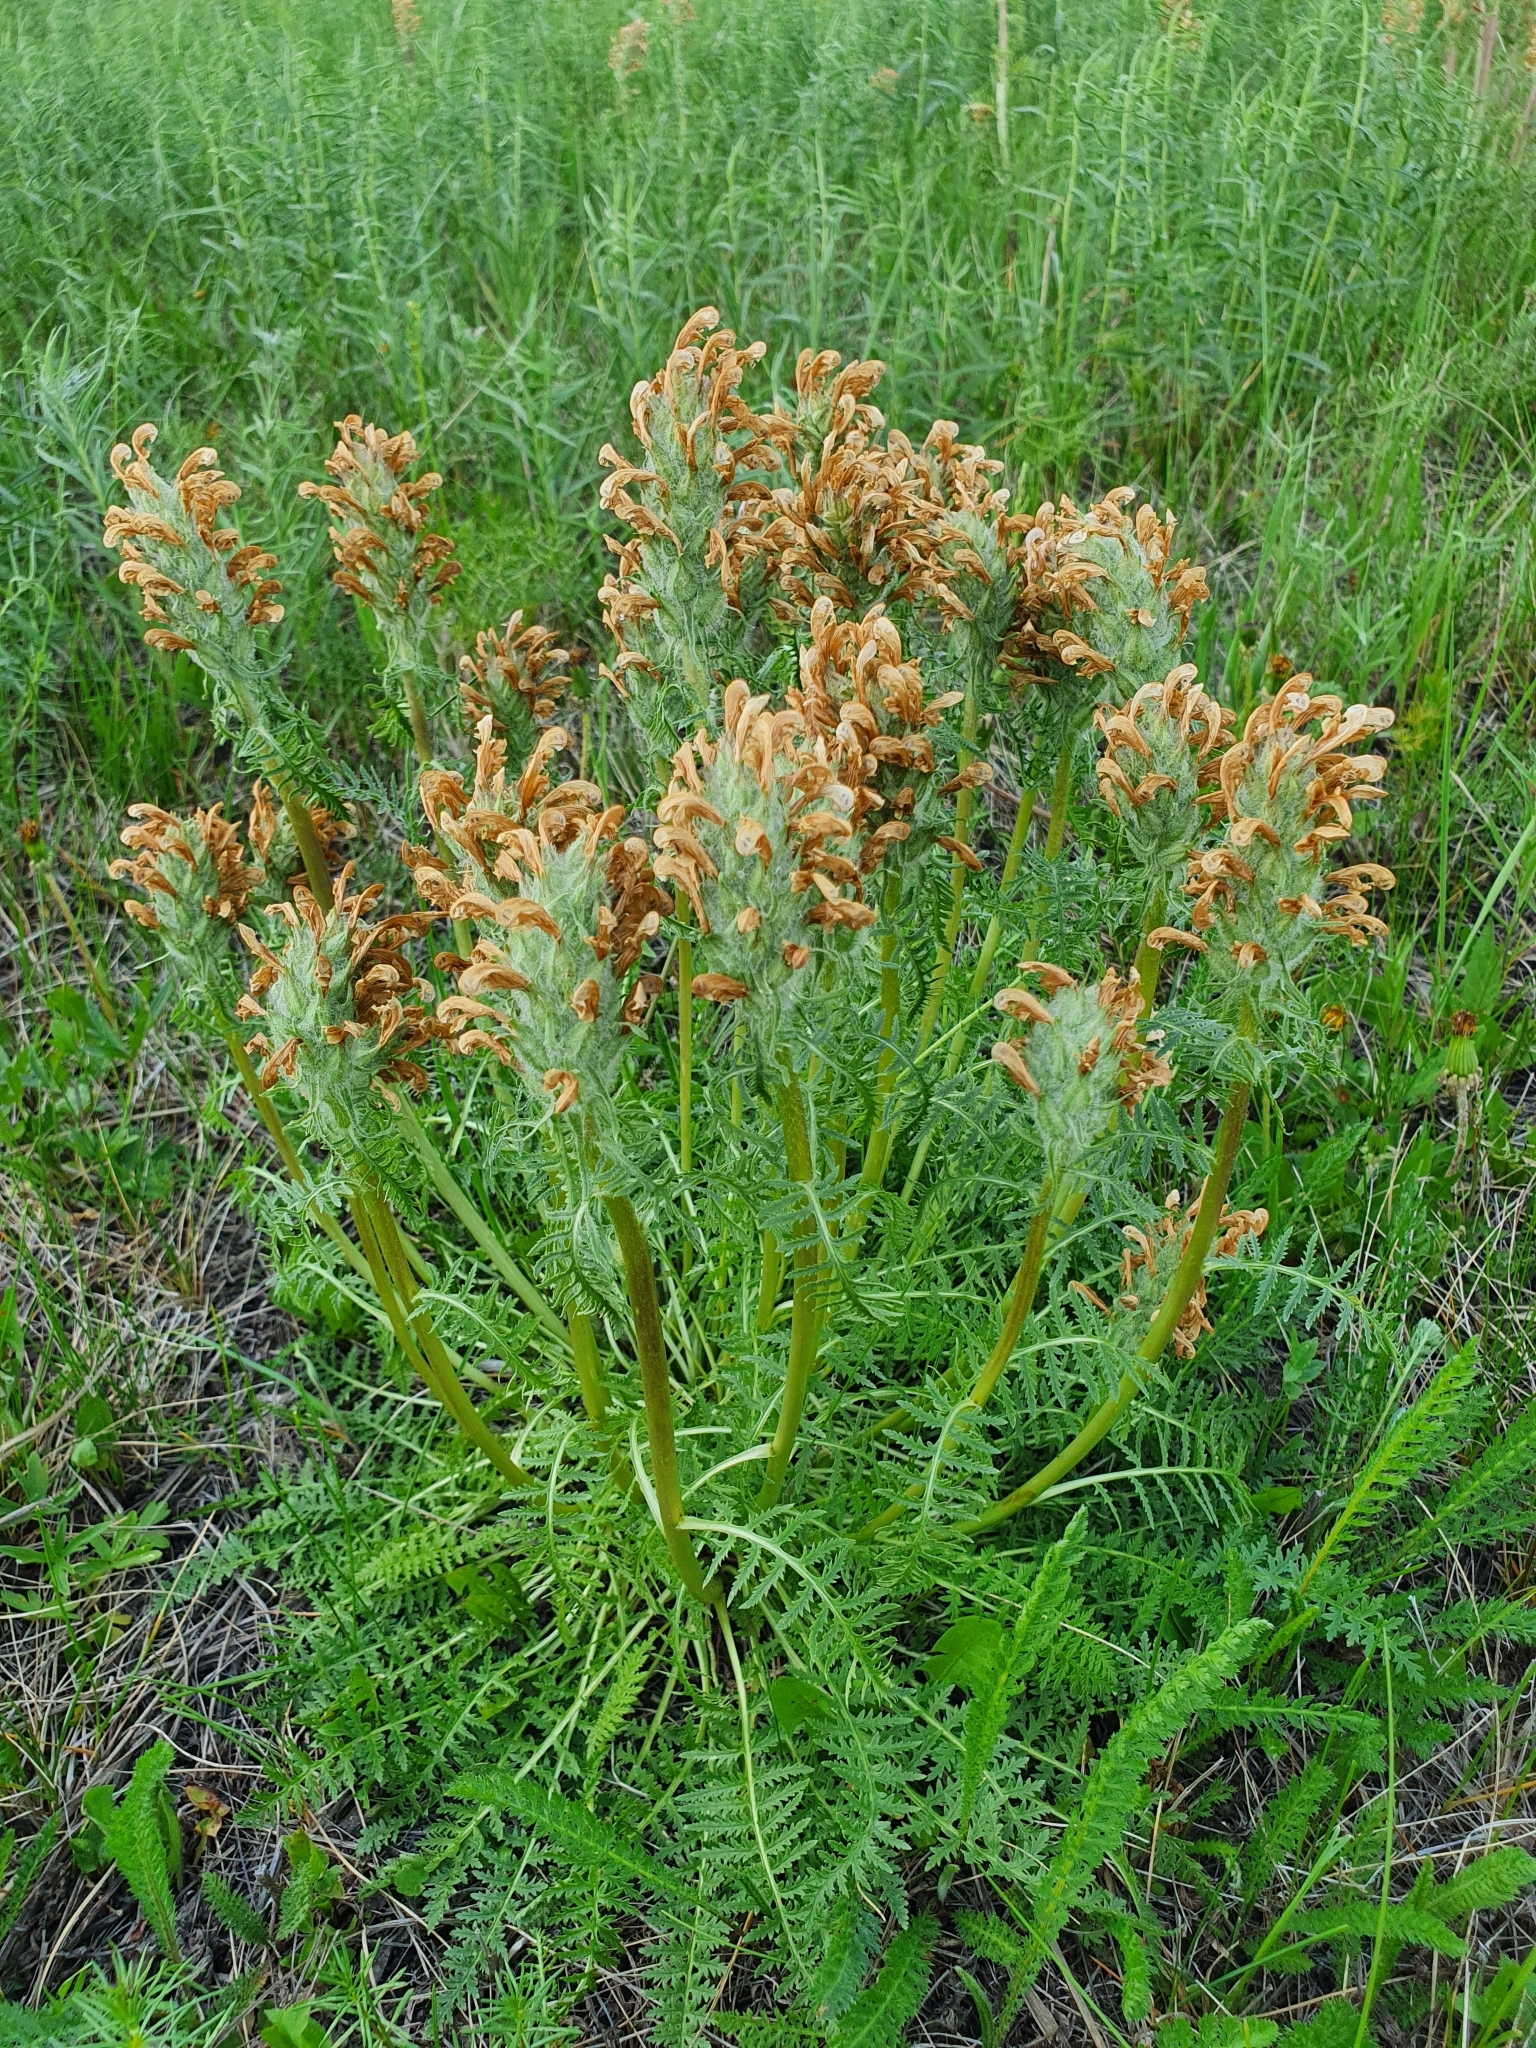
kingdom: Plantae
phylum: Tracheophyta
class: Magnoliopsida
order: Lamiales
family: Orobanchaceae
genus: Pedicularis
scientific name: Pedicularis dasystachys
